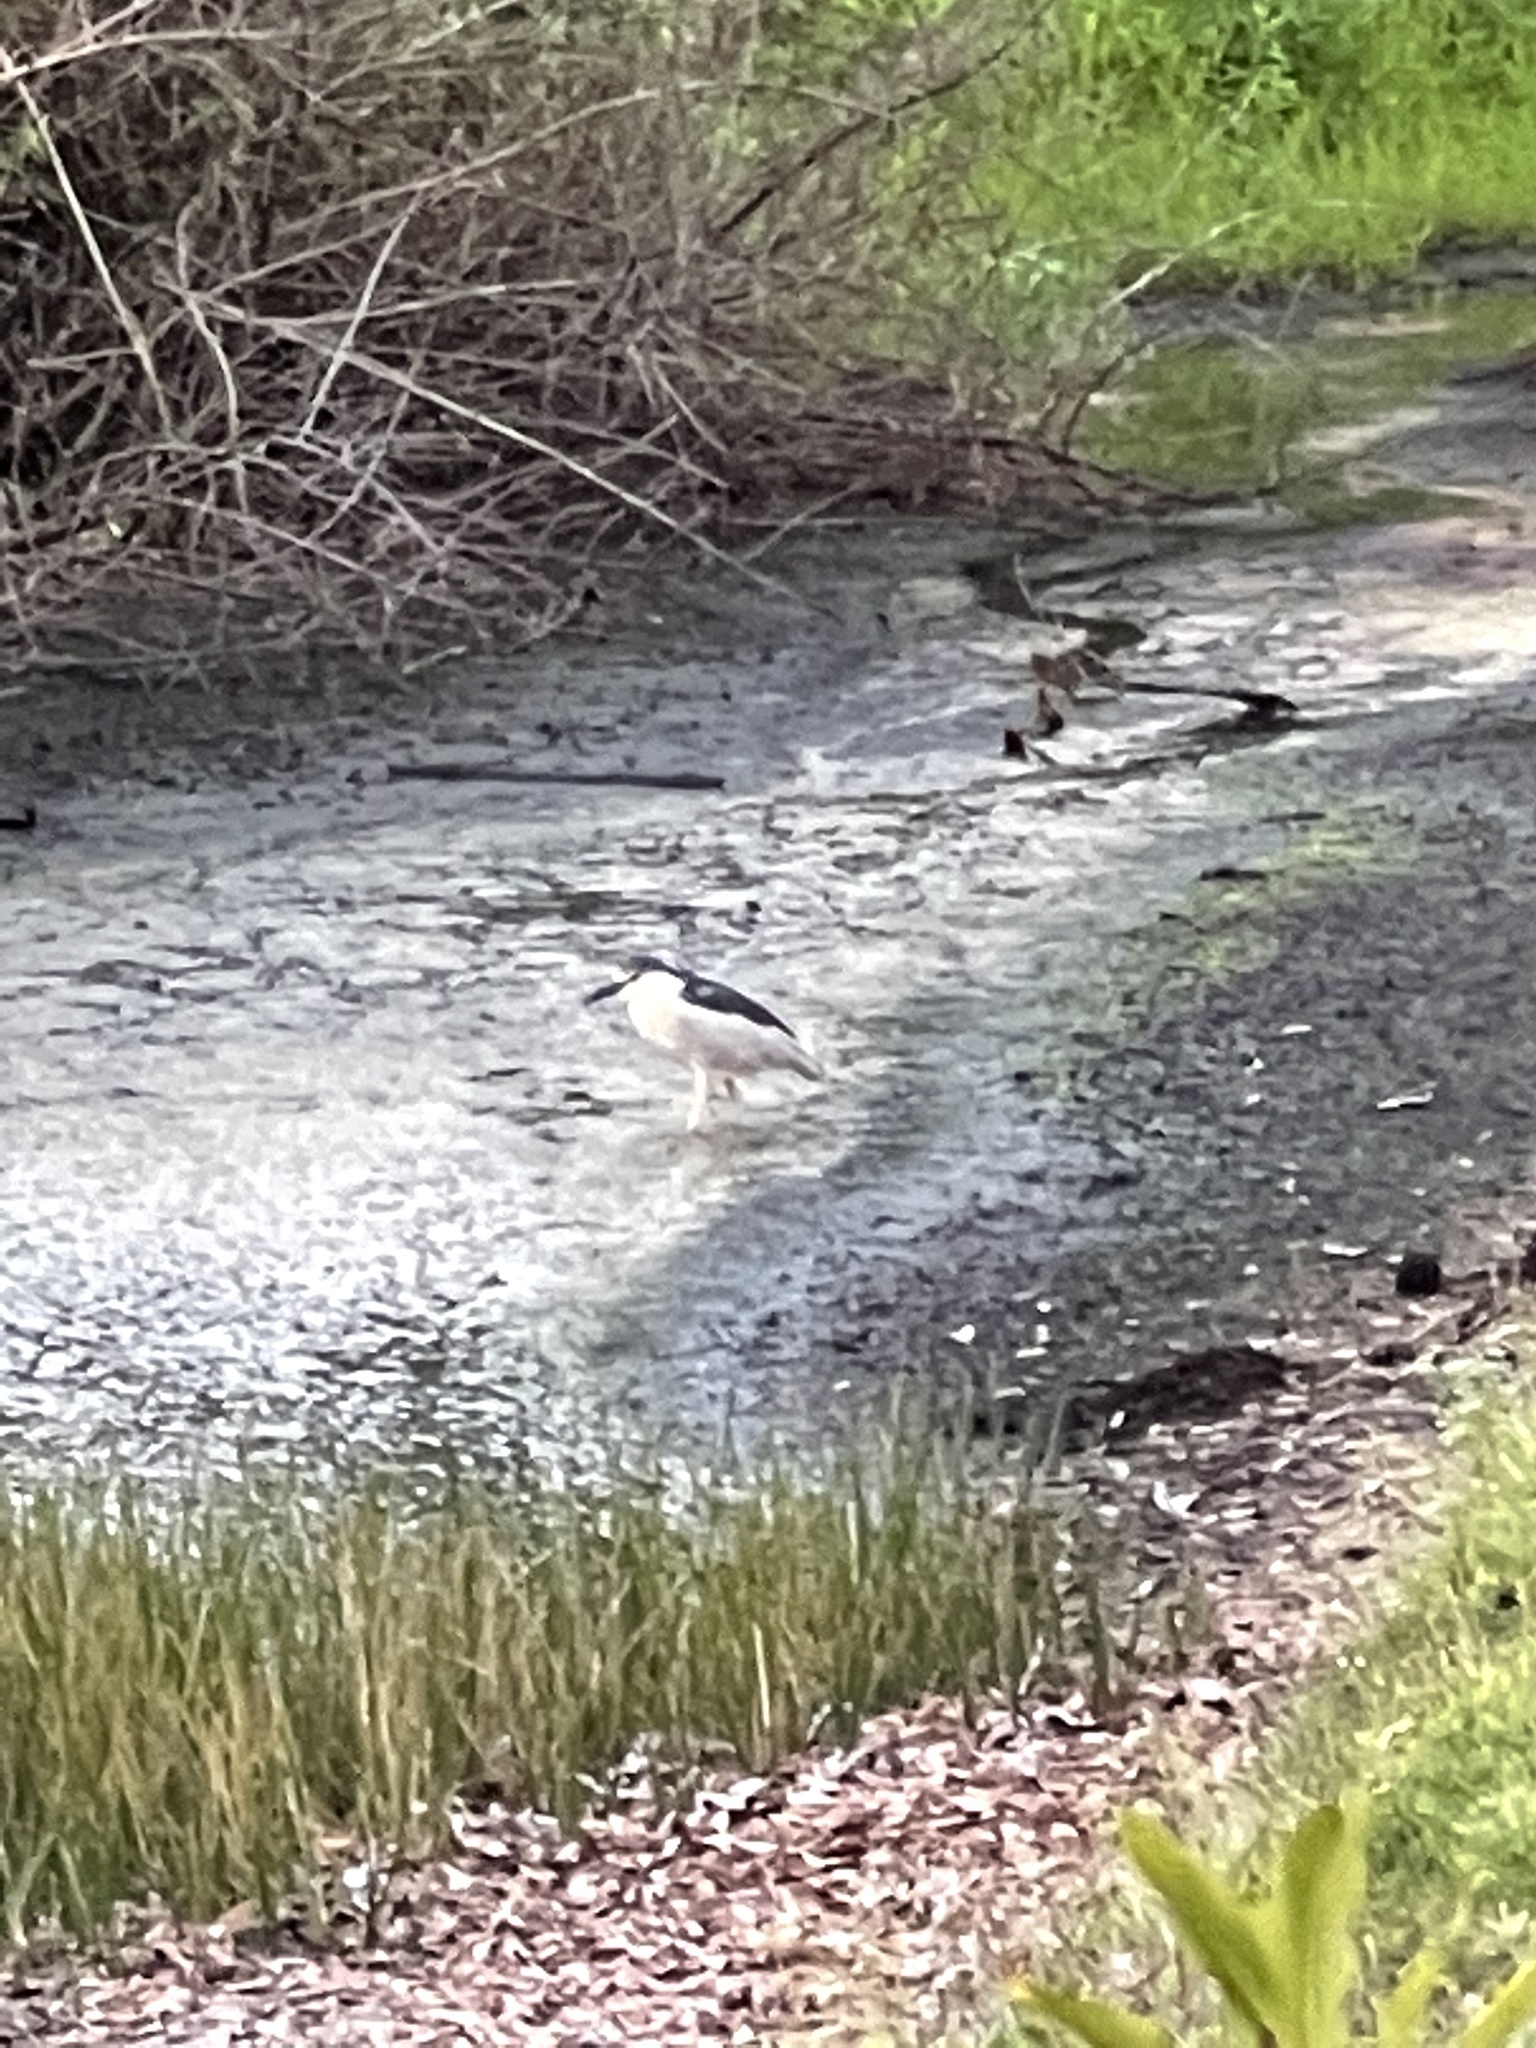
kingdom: Animalia
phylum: Chordata
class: Aves
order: Pelecaniformes
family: Ardeidae
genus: Nycticorax
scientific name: Nycticorax nycticorax
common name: Black-crowned night heron
